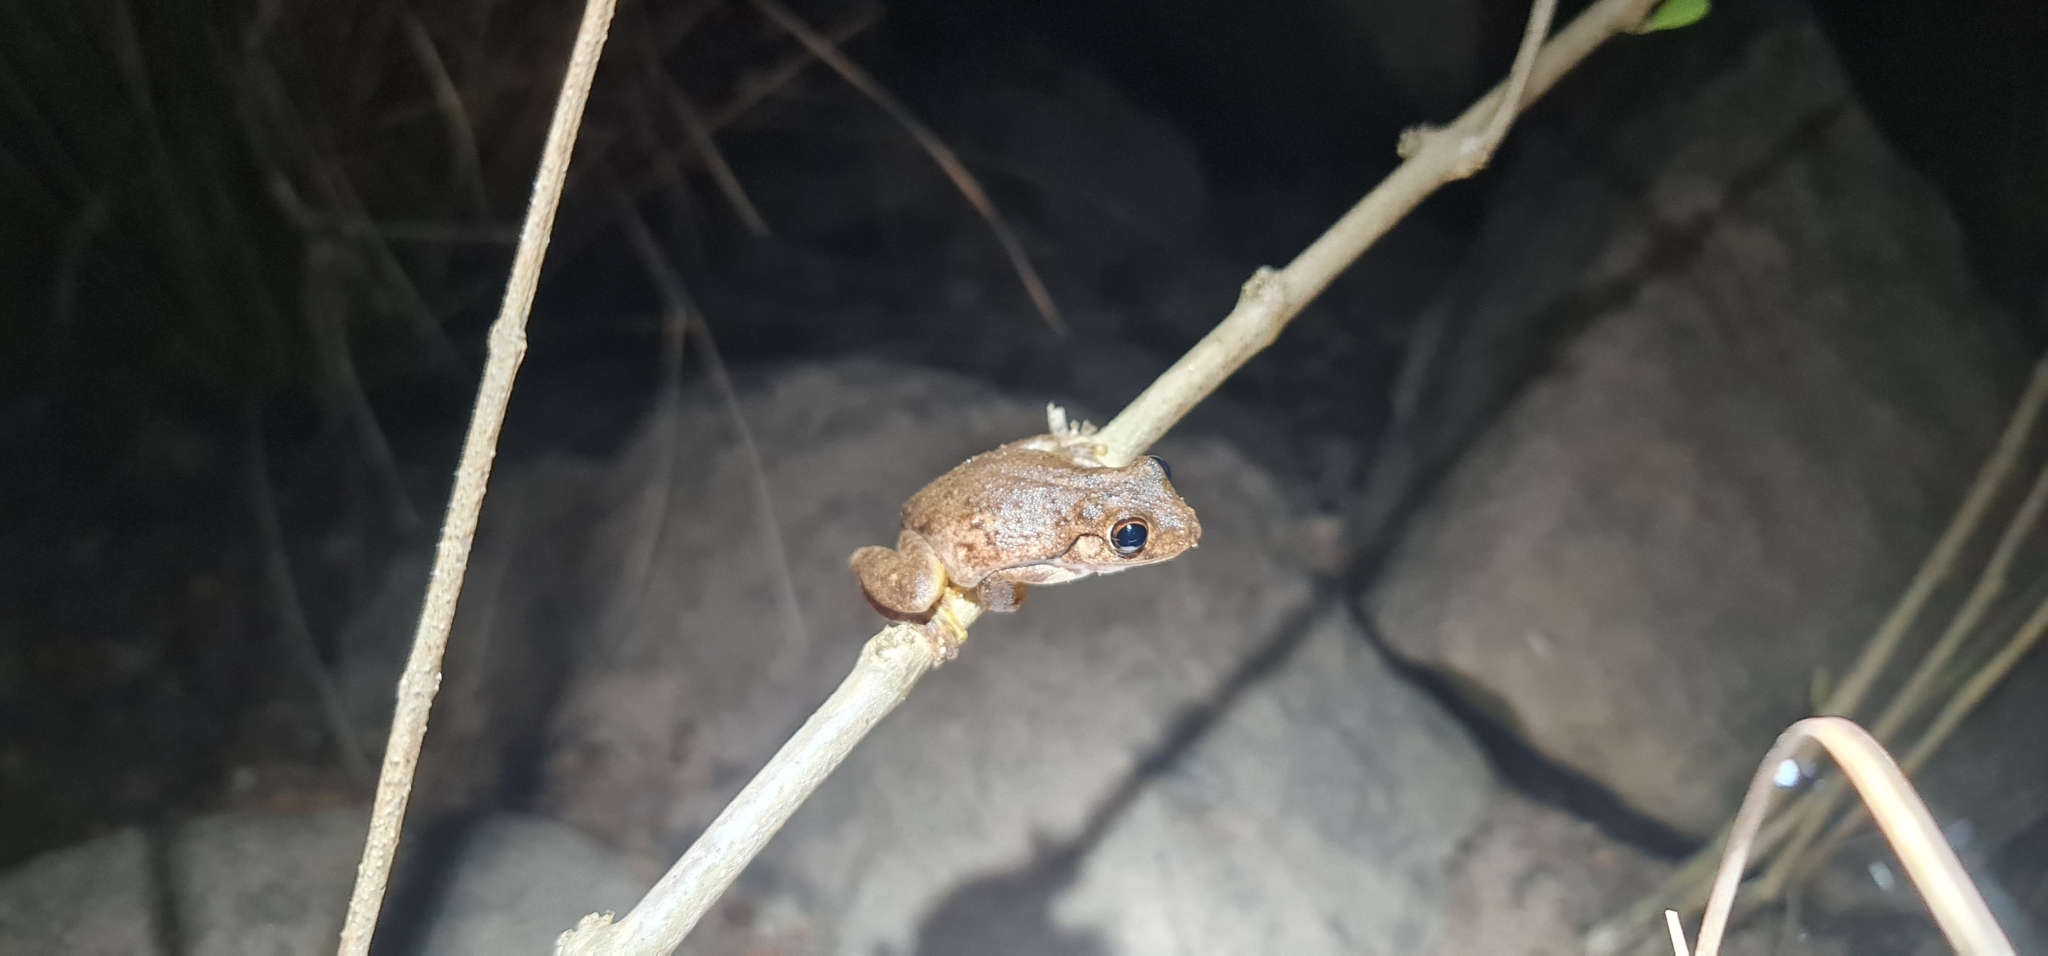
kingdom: Animalia
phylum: Chordata
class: Amphibia
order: Anura
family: Pelodryadidae
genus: Litoria
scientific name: Litoria
